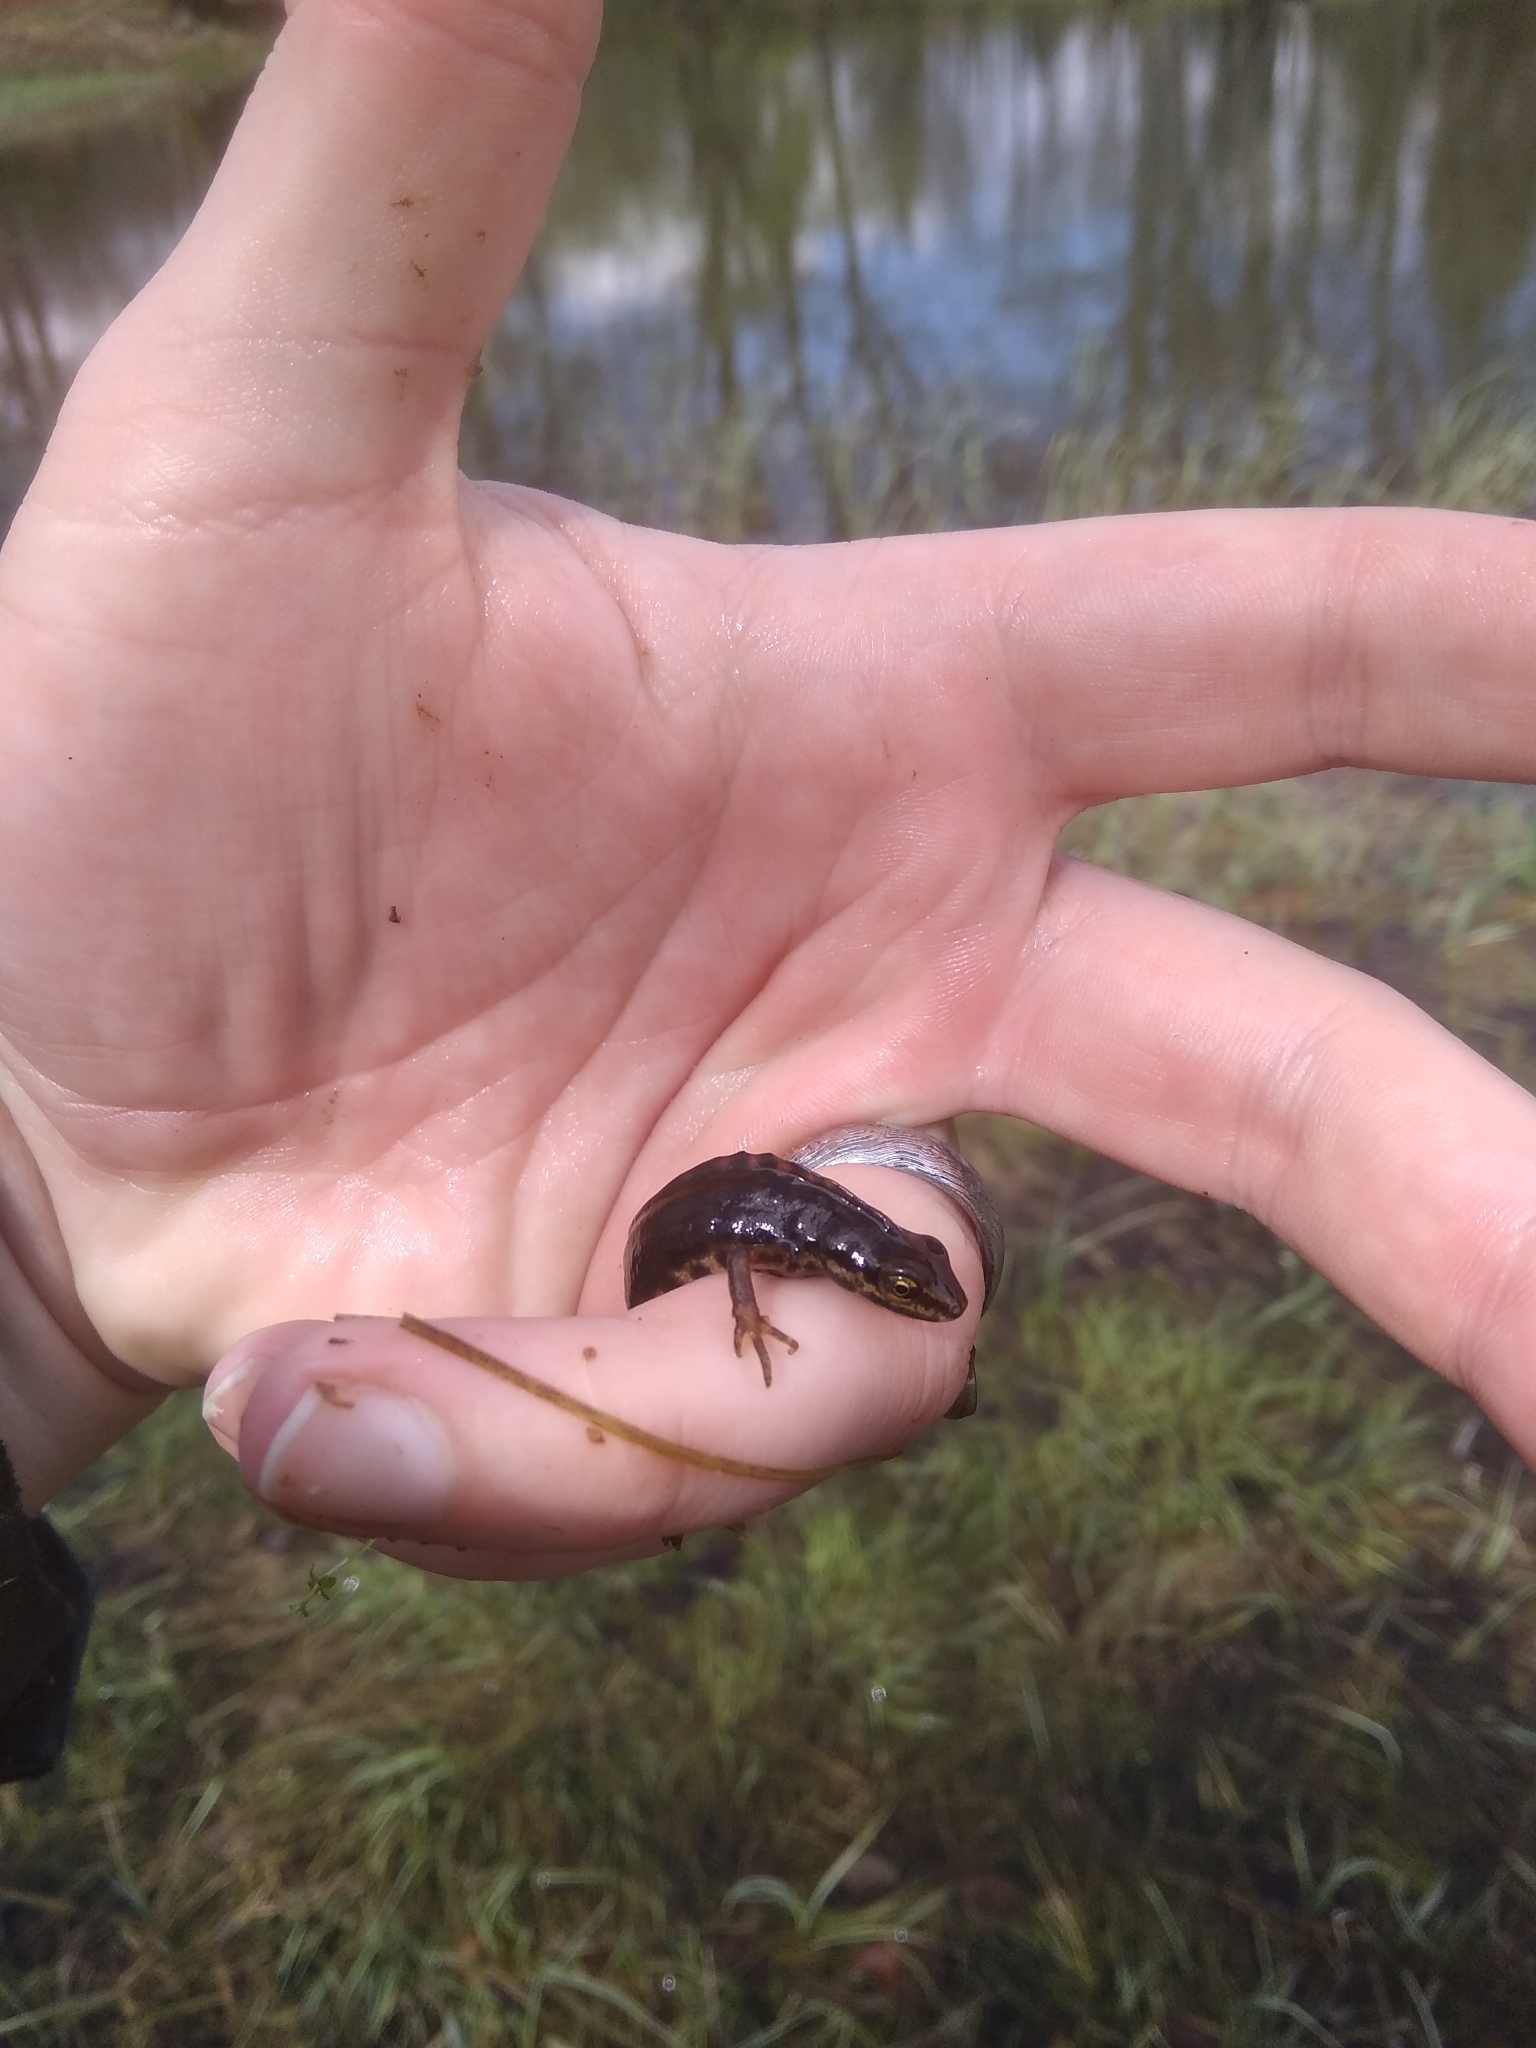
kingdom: Animalia
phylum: Chordata
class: Amphibia
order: Caudata
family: Salamandridae
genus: Lissotriton
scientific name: Lissotriton vulgaris
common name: Smooth newt
